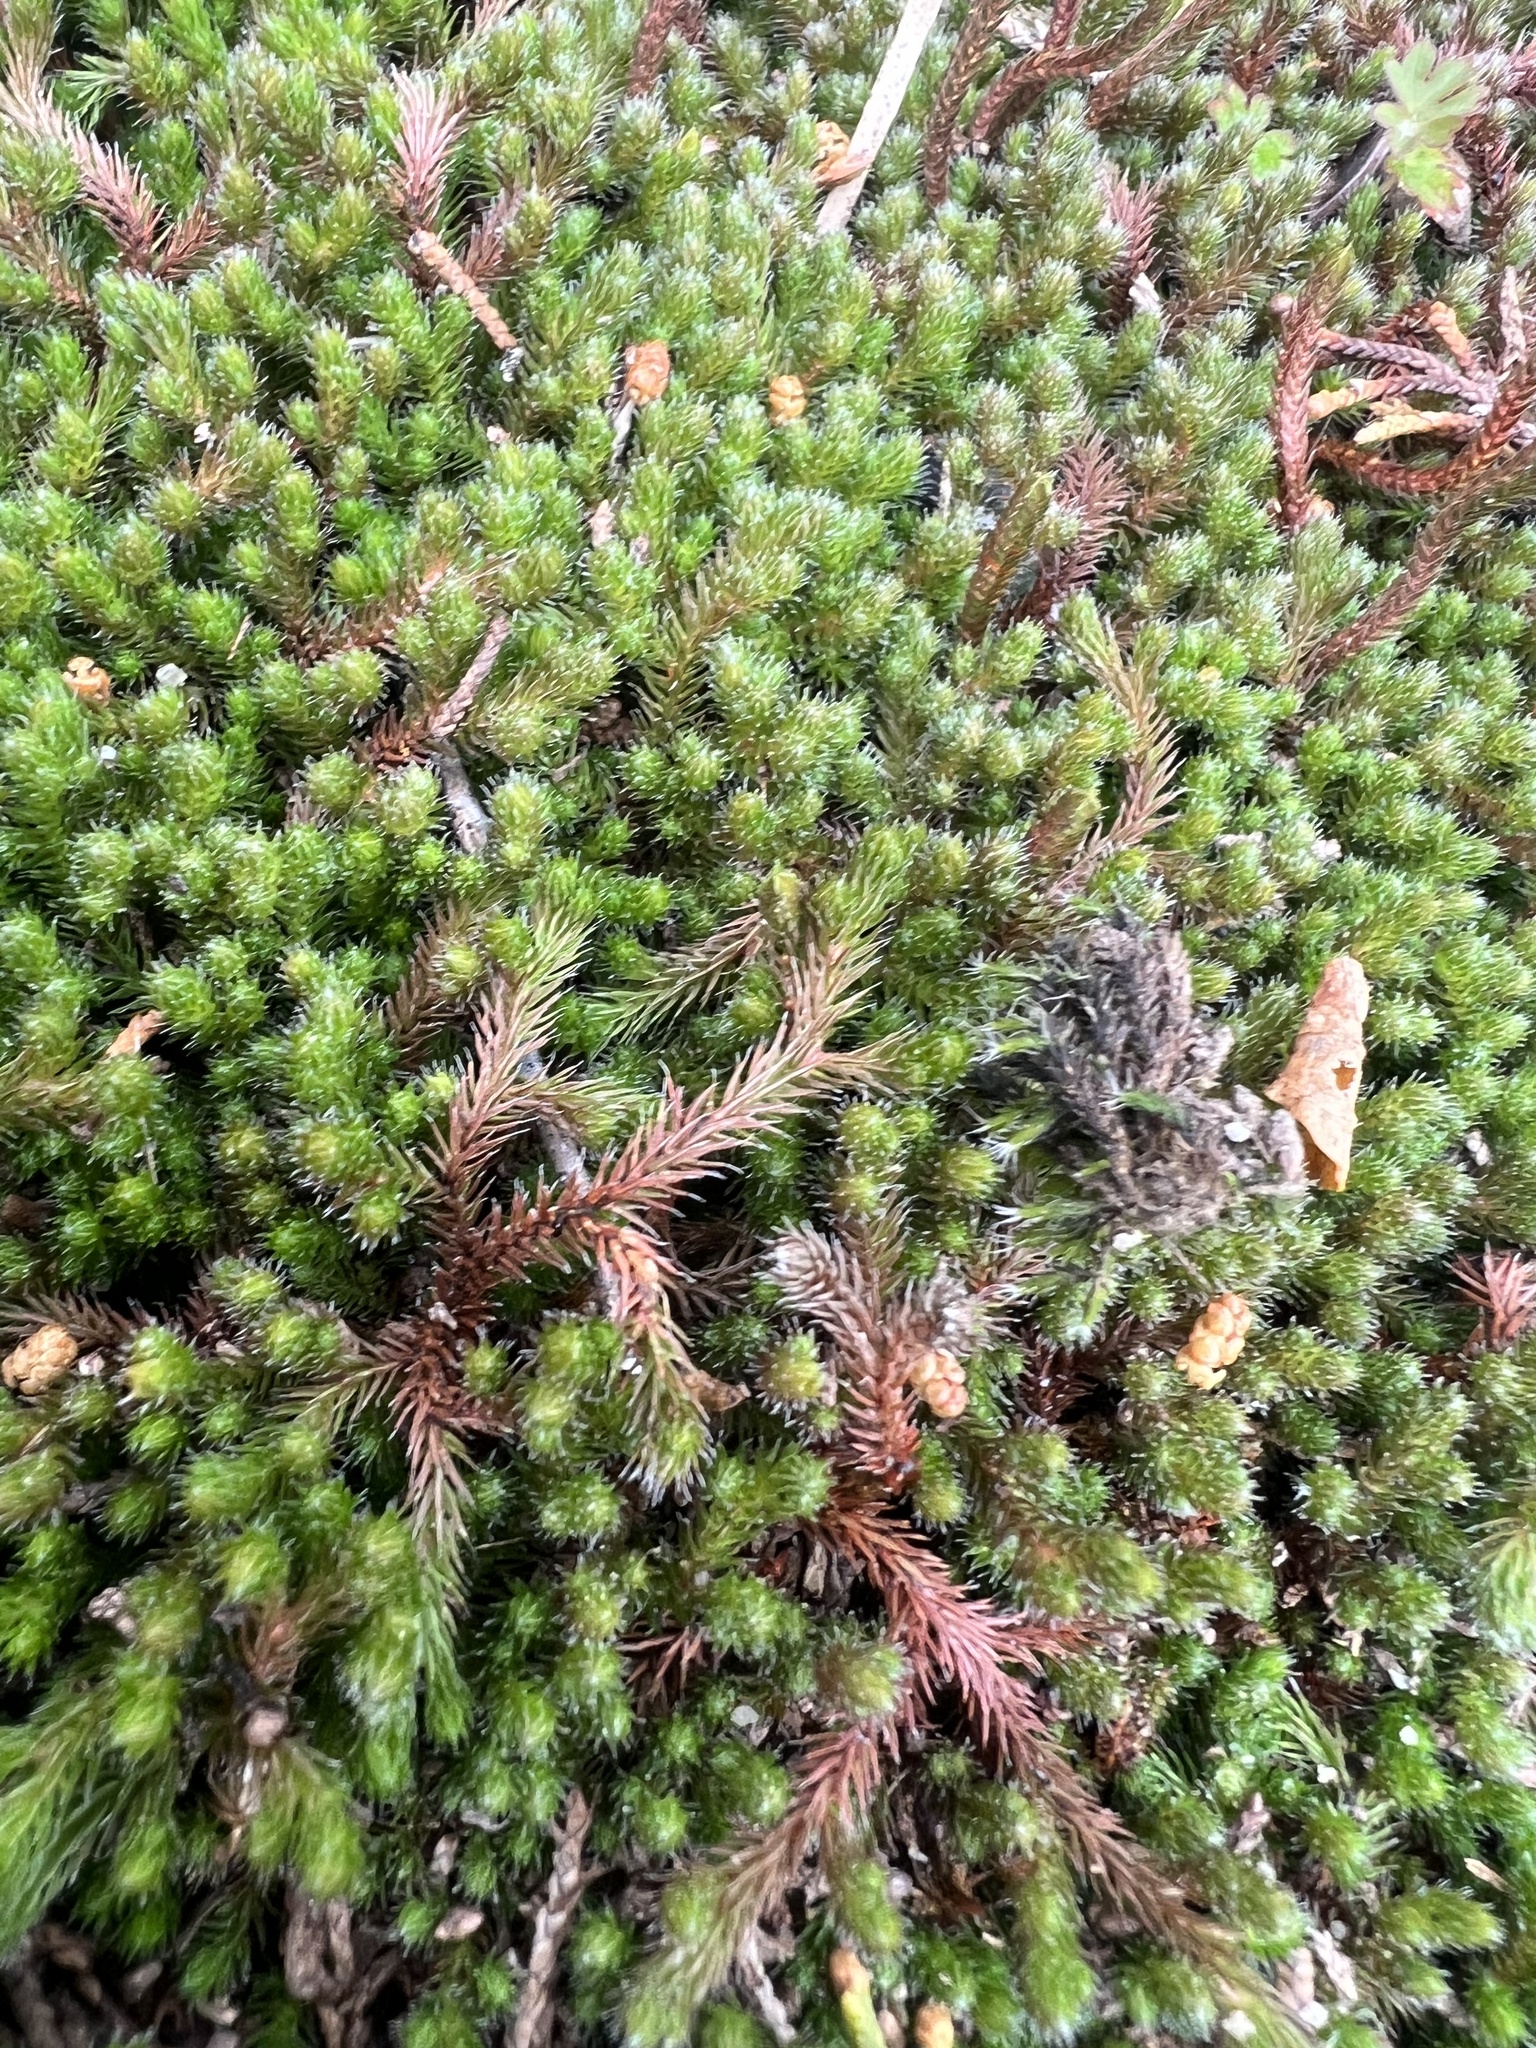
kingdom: Plantae
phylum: Tracheophyta
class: Lycopodiopsida
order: Selaginellales
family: Selaginellaceae
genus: Selaginella
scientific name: Selaginella rupestris
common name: Dwarf spikemoss
